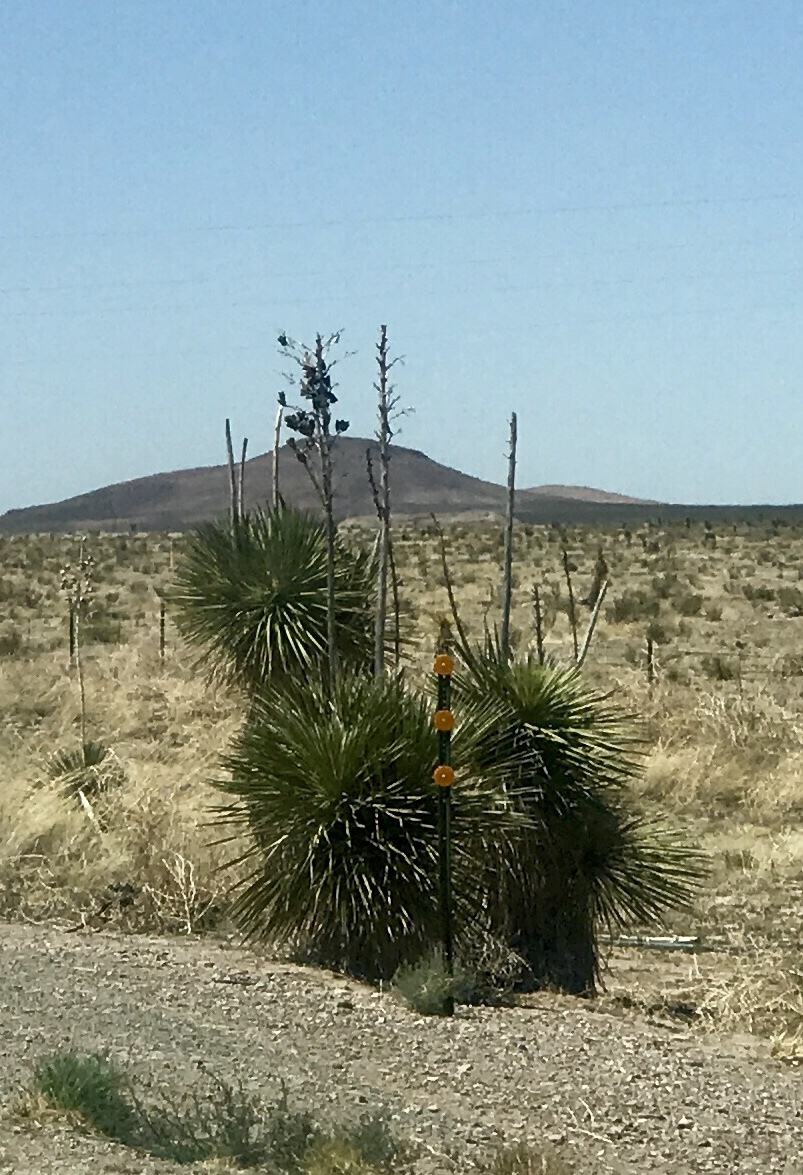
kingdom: Plantae
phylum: Tracheophyta
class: Liliopsida
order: Asparagales
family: Asparagaceae
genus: Yucca
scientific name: Yucca elata
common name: Palmella
